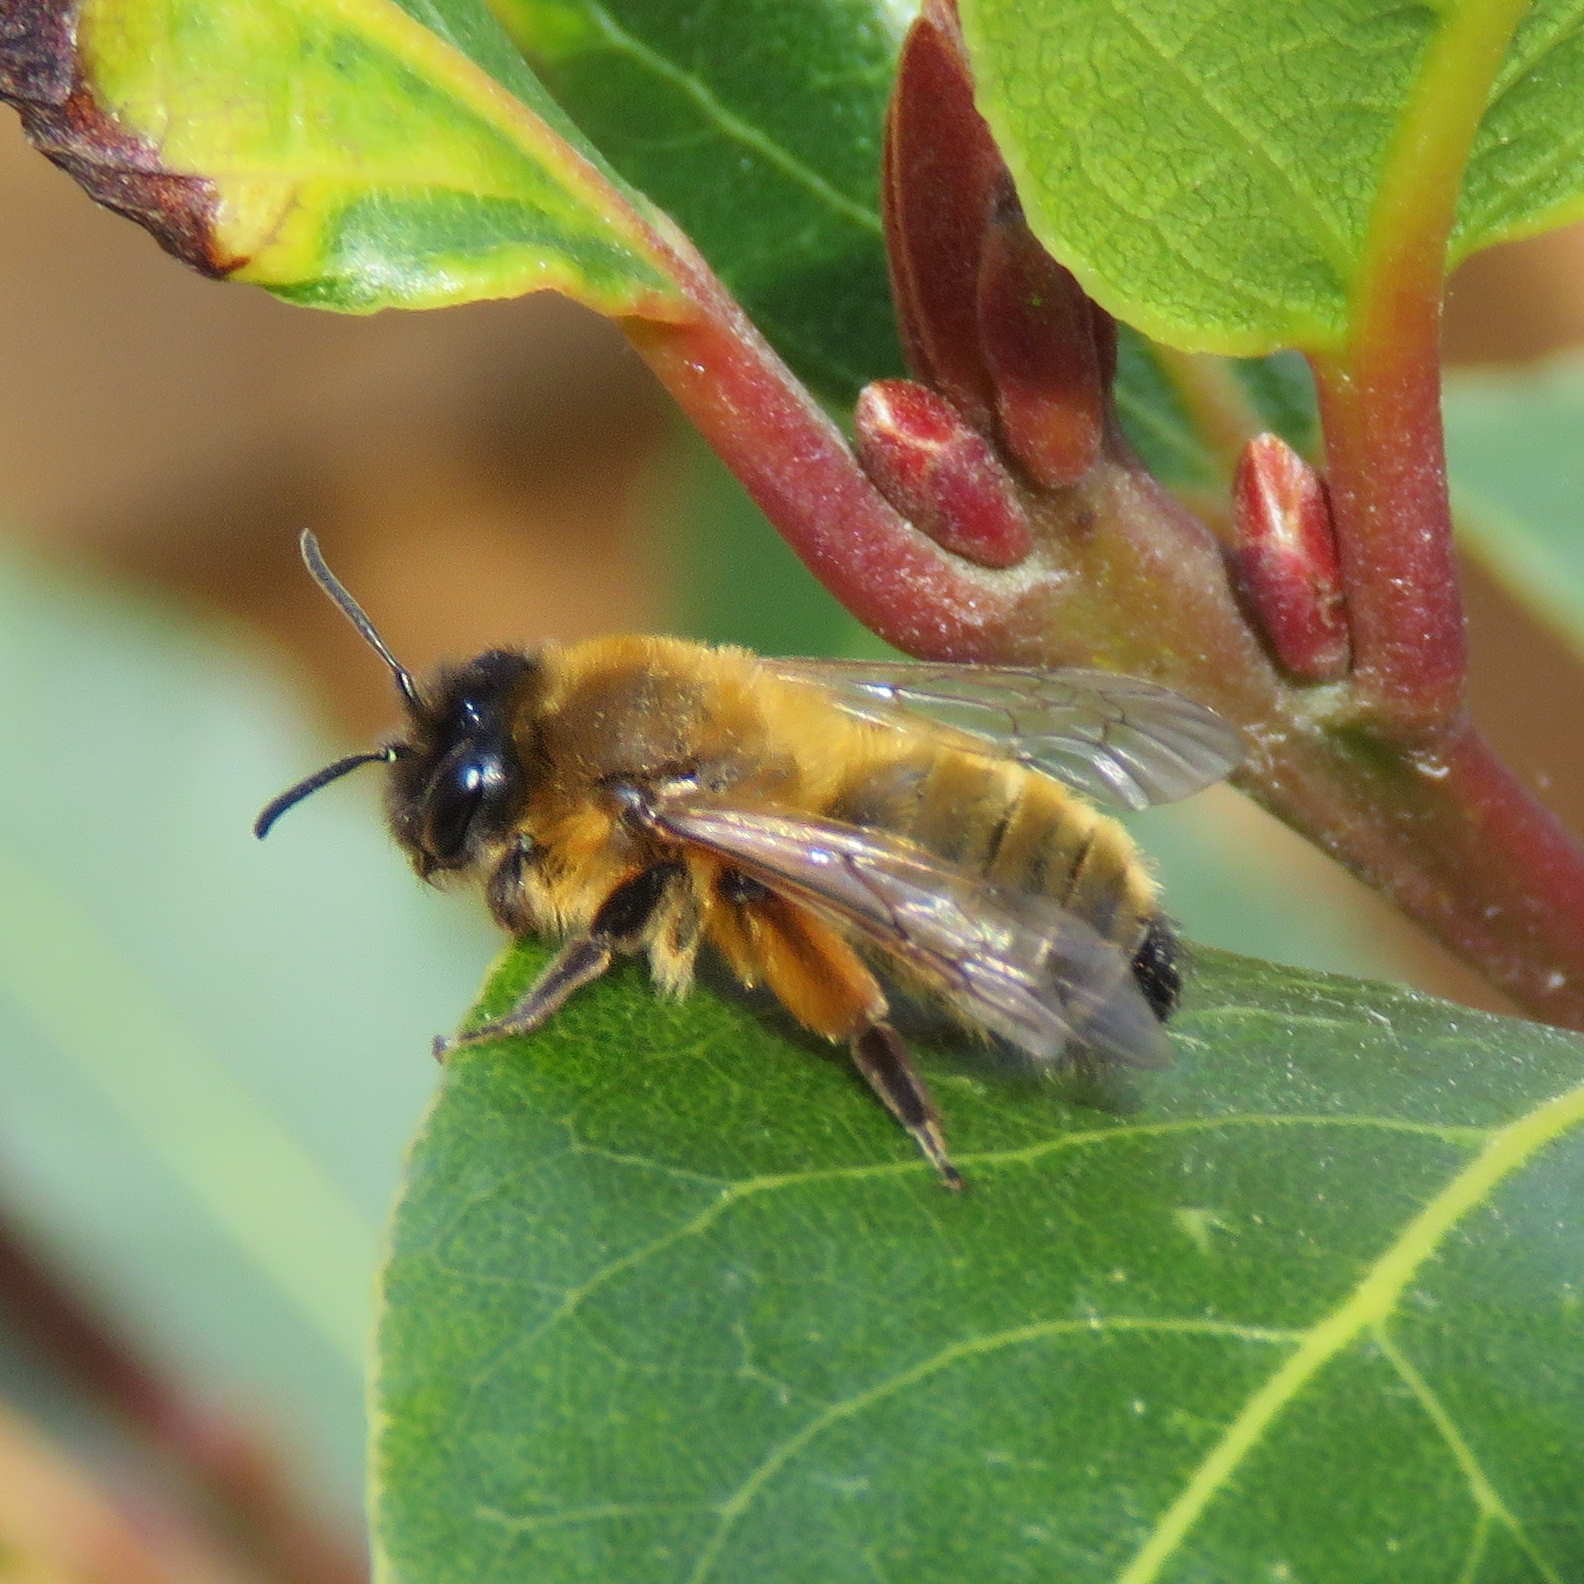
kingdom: Animalia
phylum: Arthropoda
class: Insecta
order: Hymenoptera
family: Andrenidae
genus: Andrena
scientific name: Andrena nigroaenea
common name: Buffish mining bee
